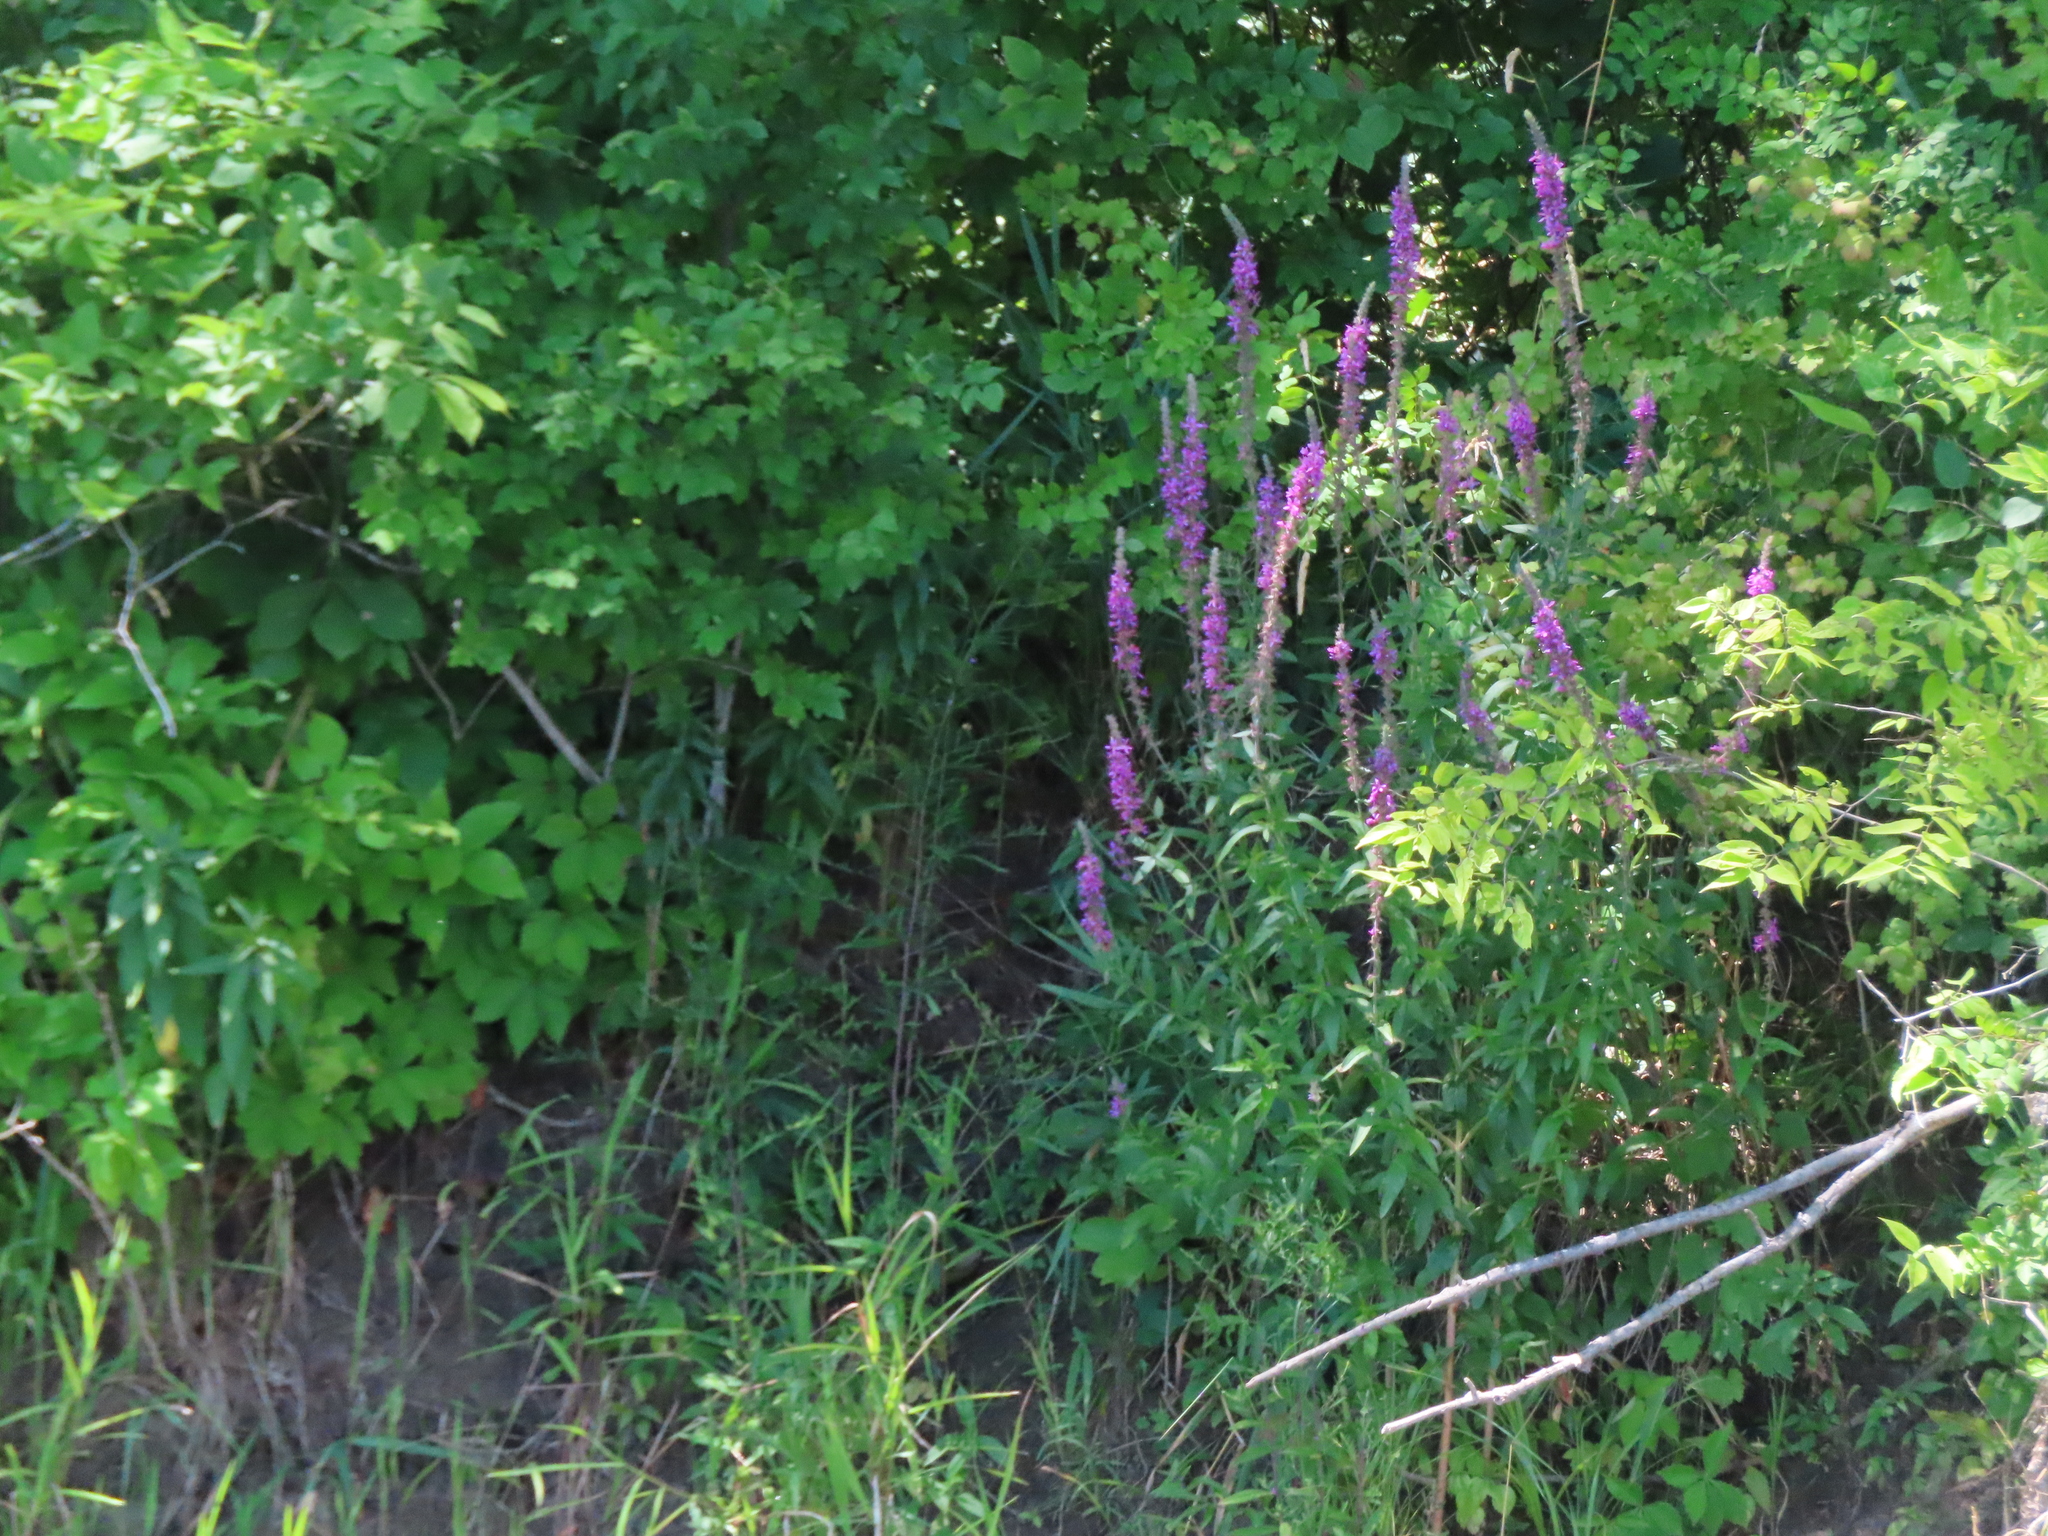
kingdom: Plantae
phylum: Tracheophyta
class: Magnoliopsida
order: Myrtales
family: Lythraceae
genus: Lythrum
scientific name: Lythrum salicaria
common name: Purple loosestrife
